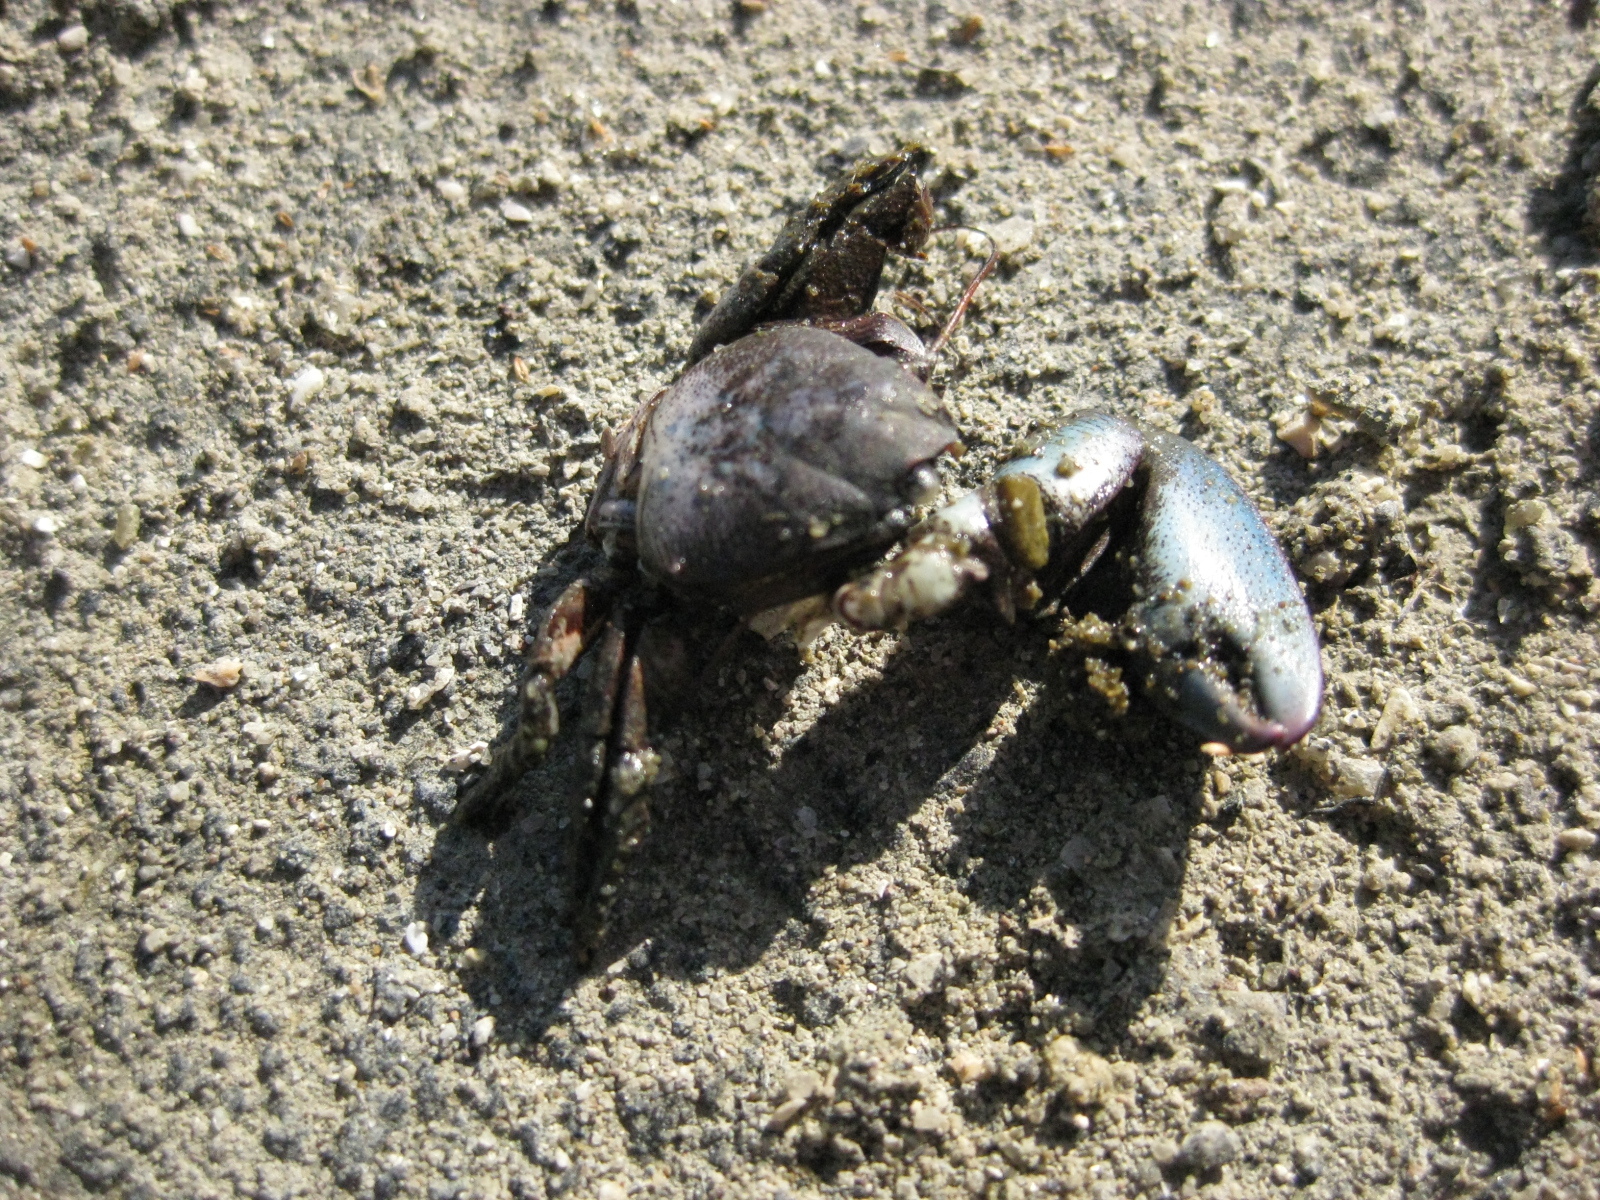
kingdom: Animalia
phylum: Arthropoda
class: Malacostraca
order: Decapoda
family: Porcellanidae
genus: Petrolisthes
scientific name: Petrolisthes elongatus
